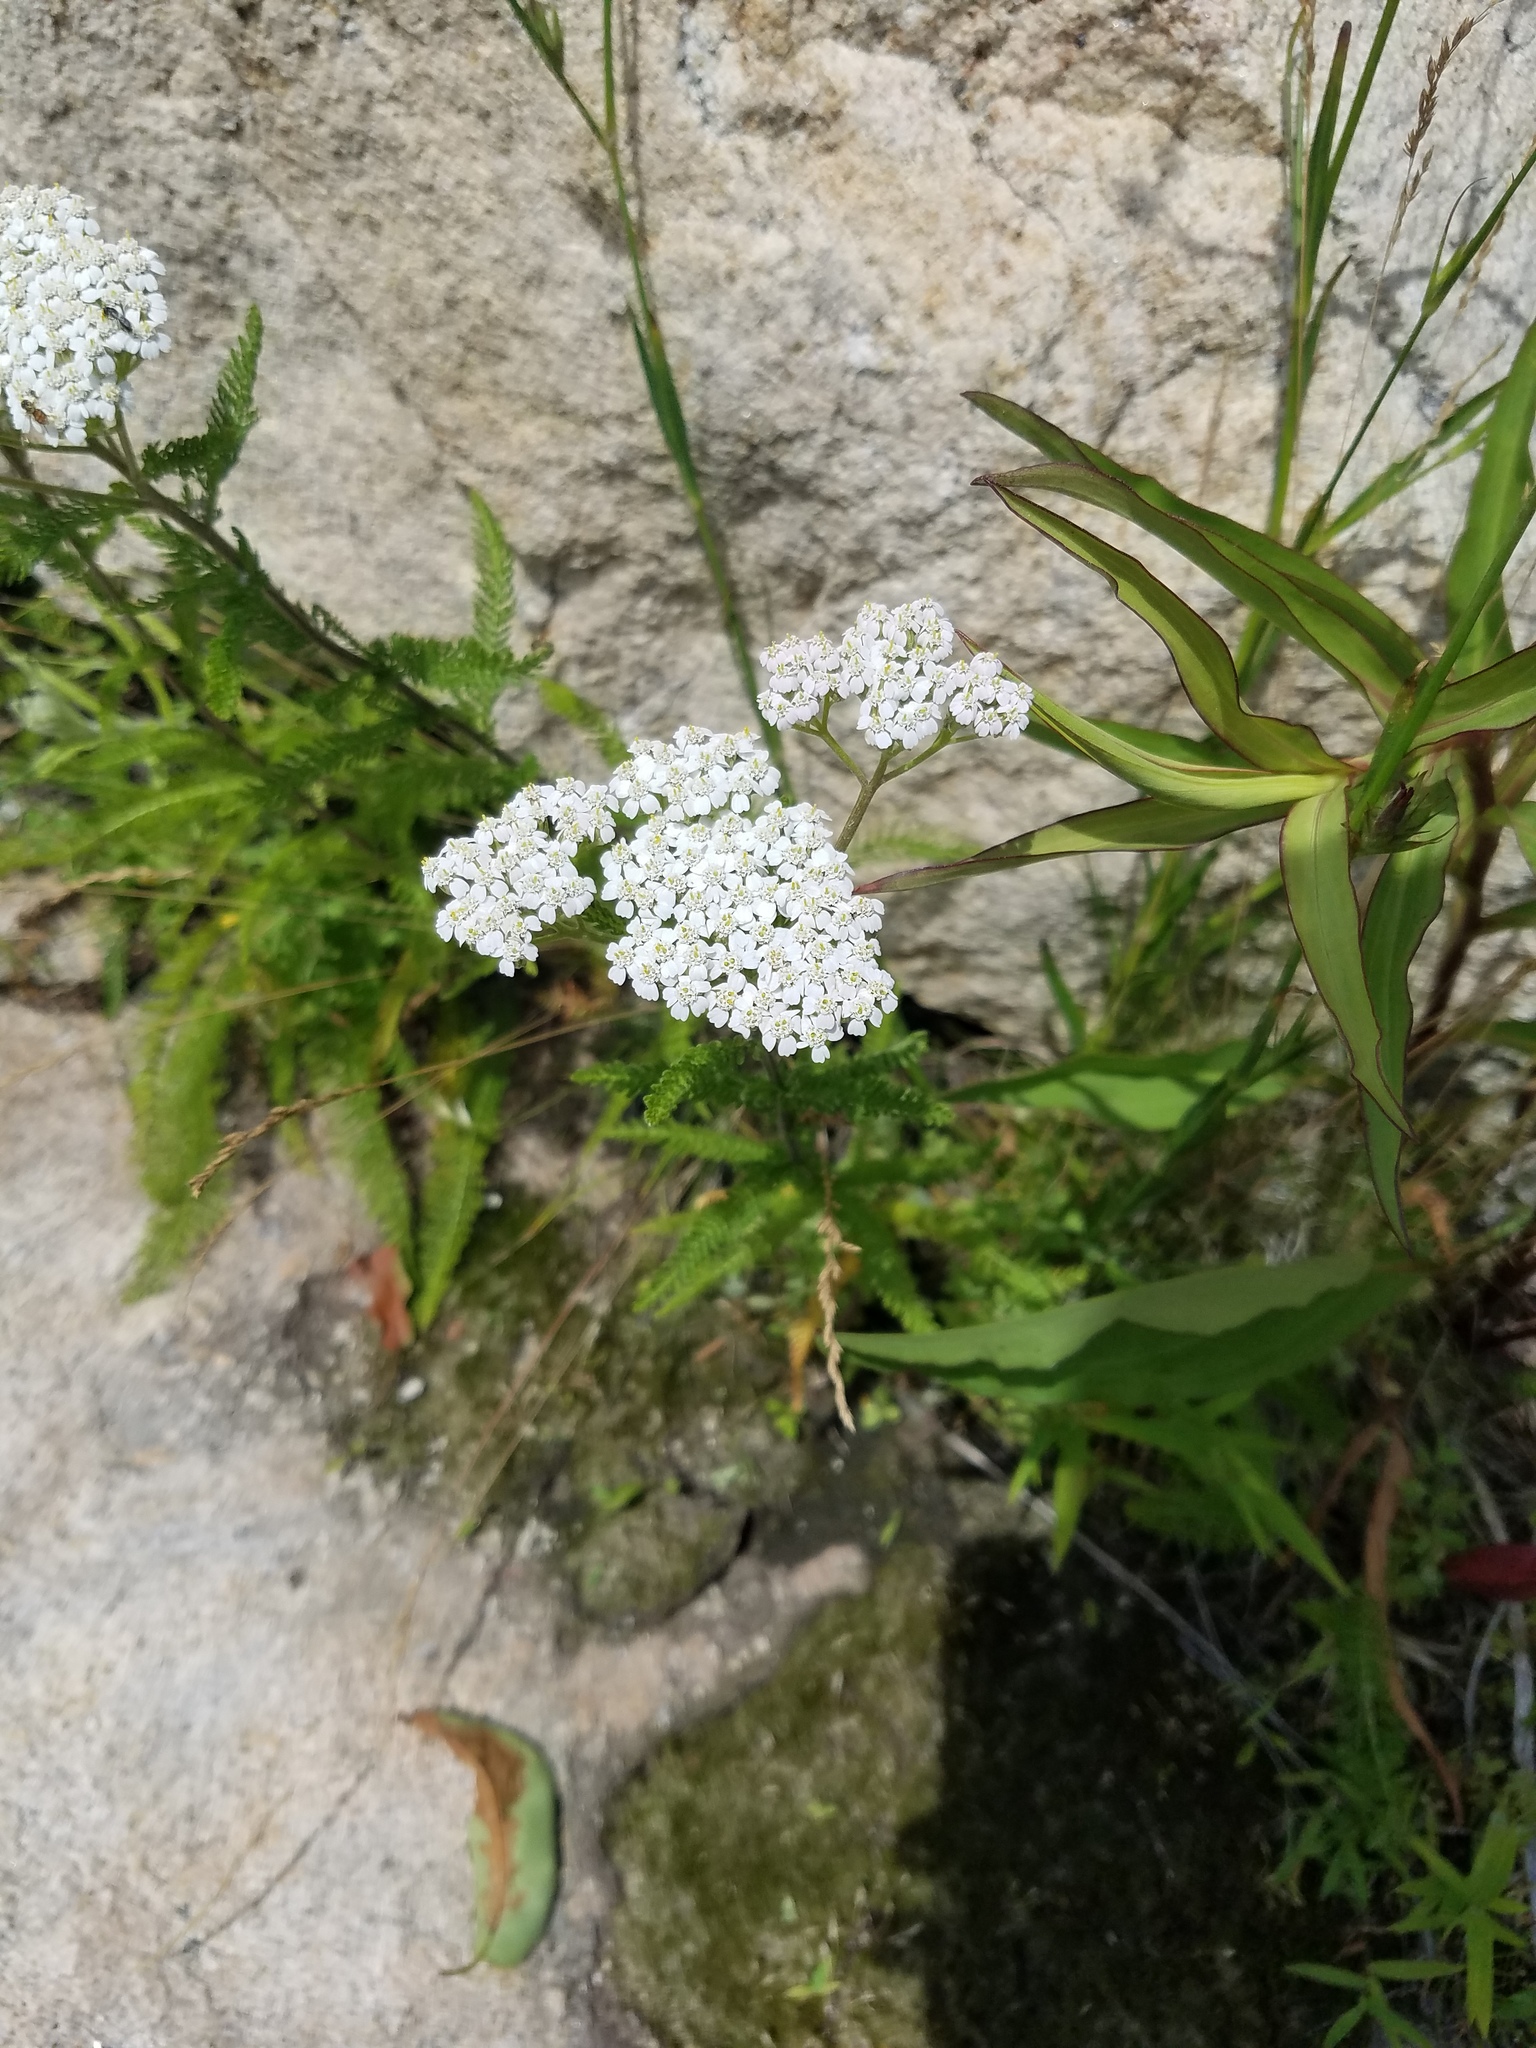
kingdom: Plantae
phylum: Tracheophyta
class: Magnoliopsida
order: Asterales
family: Asteraceae
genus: Achillea
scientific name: Achillea millefolium
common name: Yarrow
